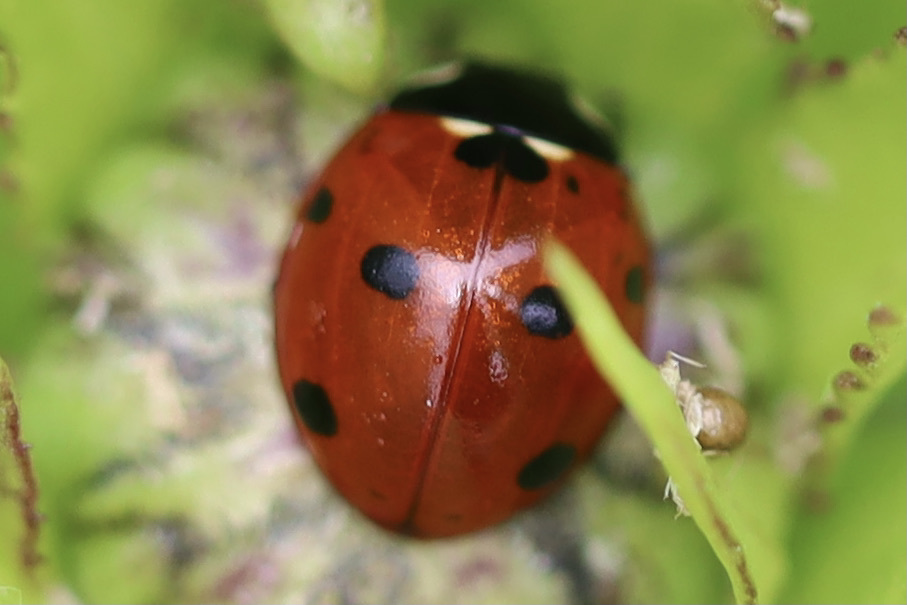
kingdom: Animalia
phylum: Arthropoda
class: Insecta
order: Coleoptera
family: Coccinellidae
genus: Coccinella
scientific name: Coccinella septempunctata
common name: Sevenspotted lady beetle
